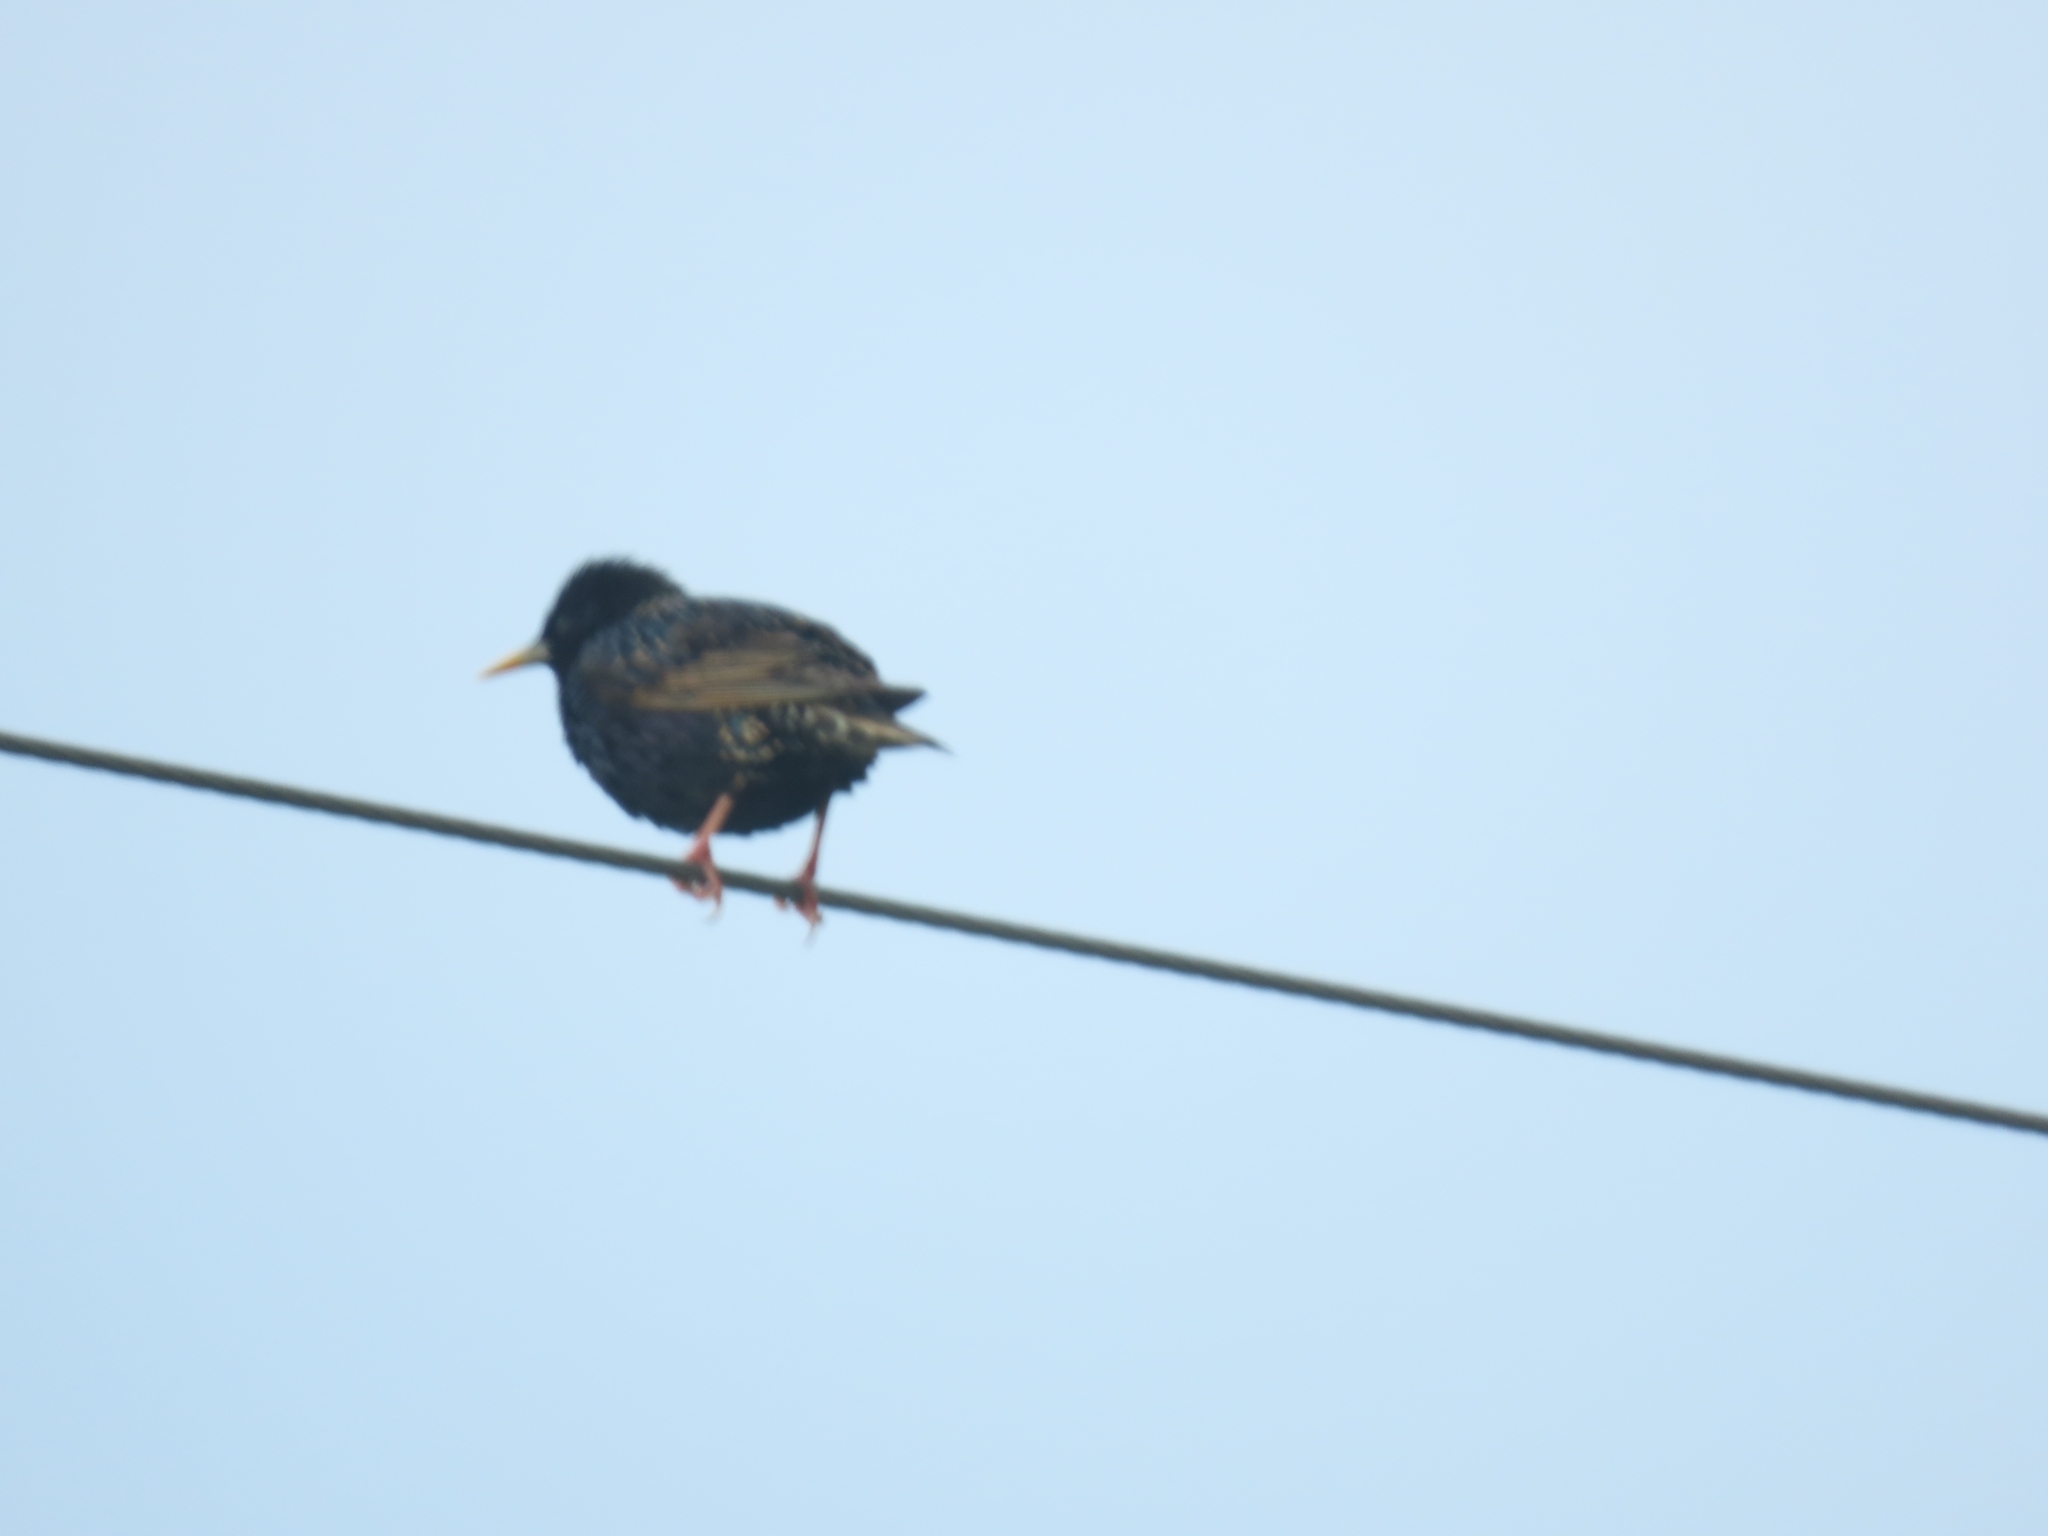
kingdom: Animalia
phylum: Chordata
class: Aves
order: Passeriformes
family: Sturnidae
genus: Sturnus
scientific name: Sturnus vulgaris
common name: Common starling
